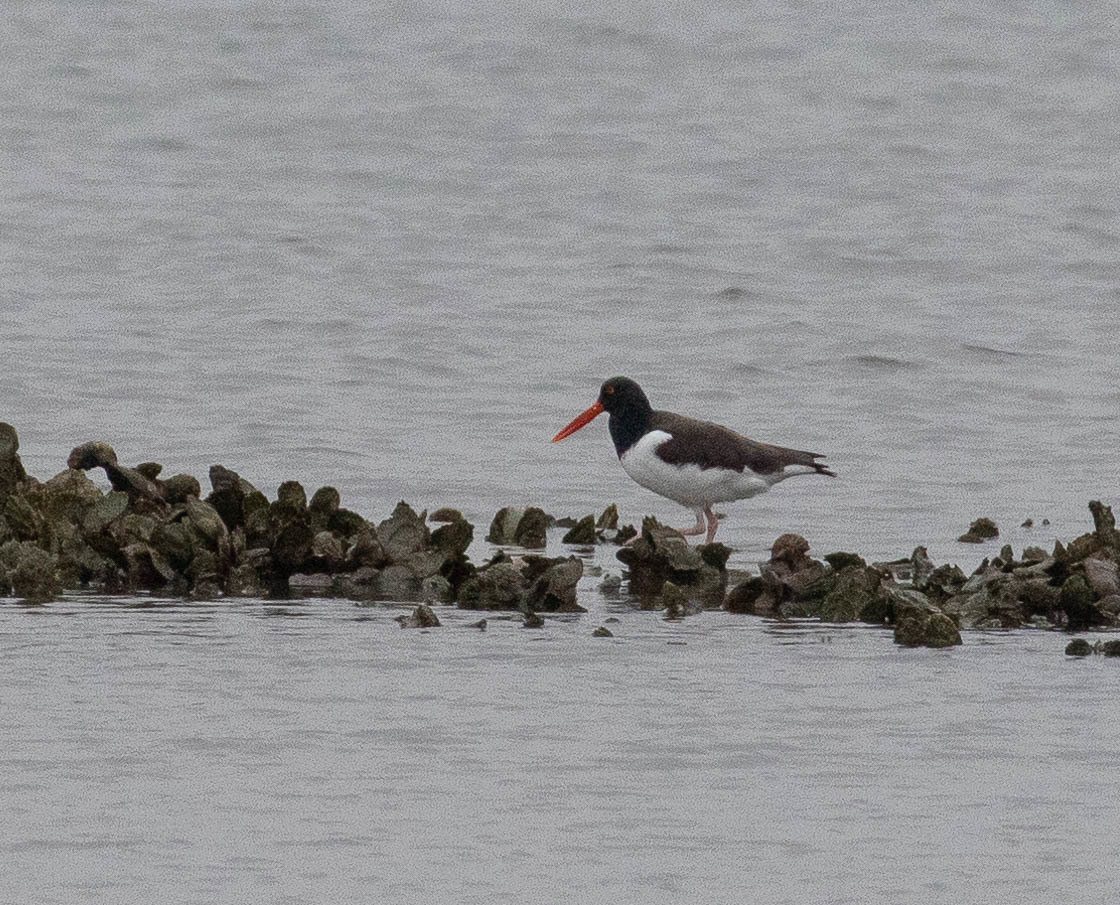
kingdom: Animalia
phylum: Chordata
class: Aves
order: Charadriiformes
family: Haematopodidae
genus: Haematopus
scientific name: Haematopus palliatus
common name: American oystercatcher
